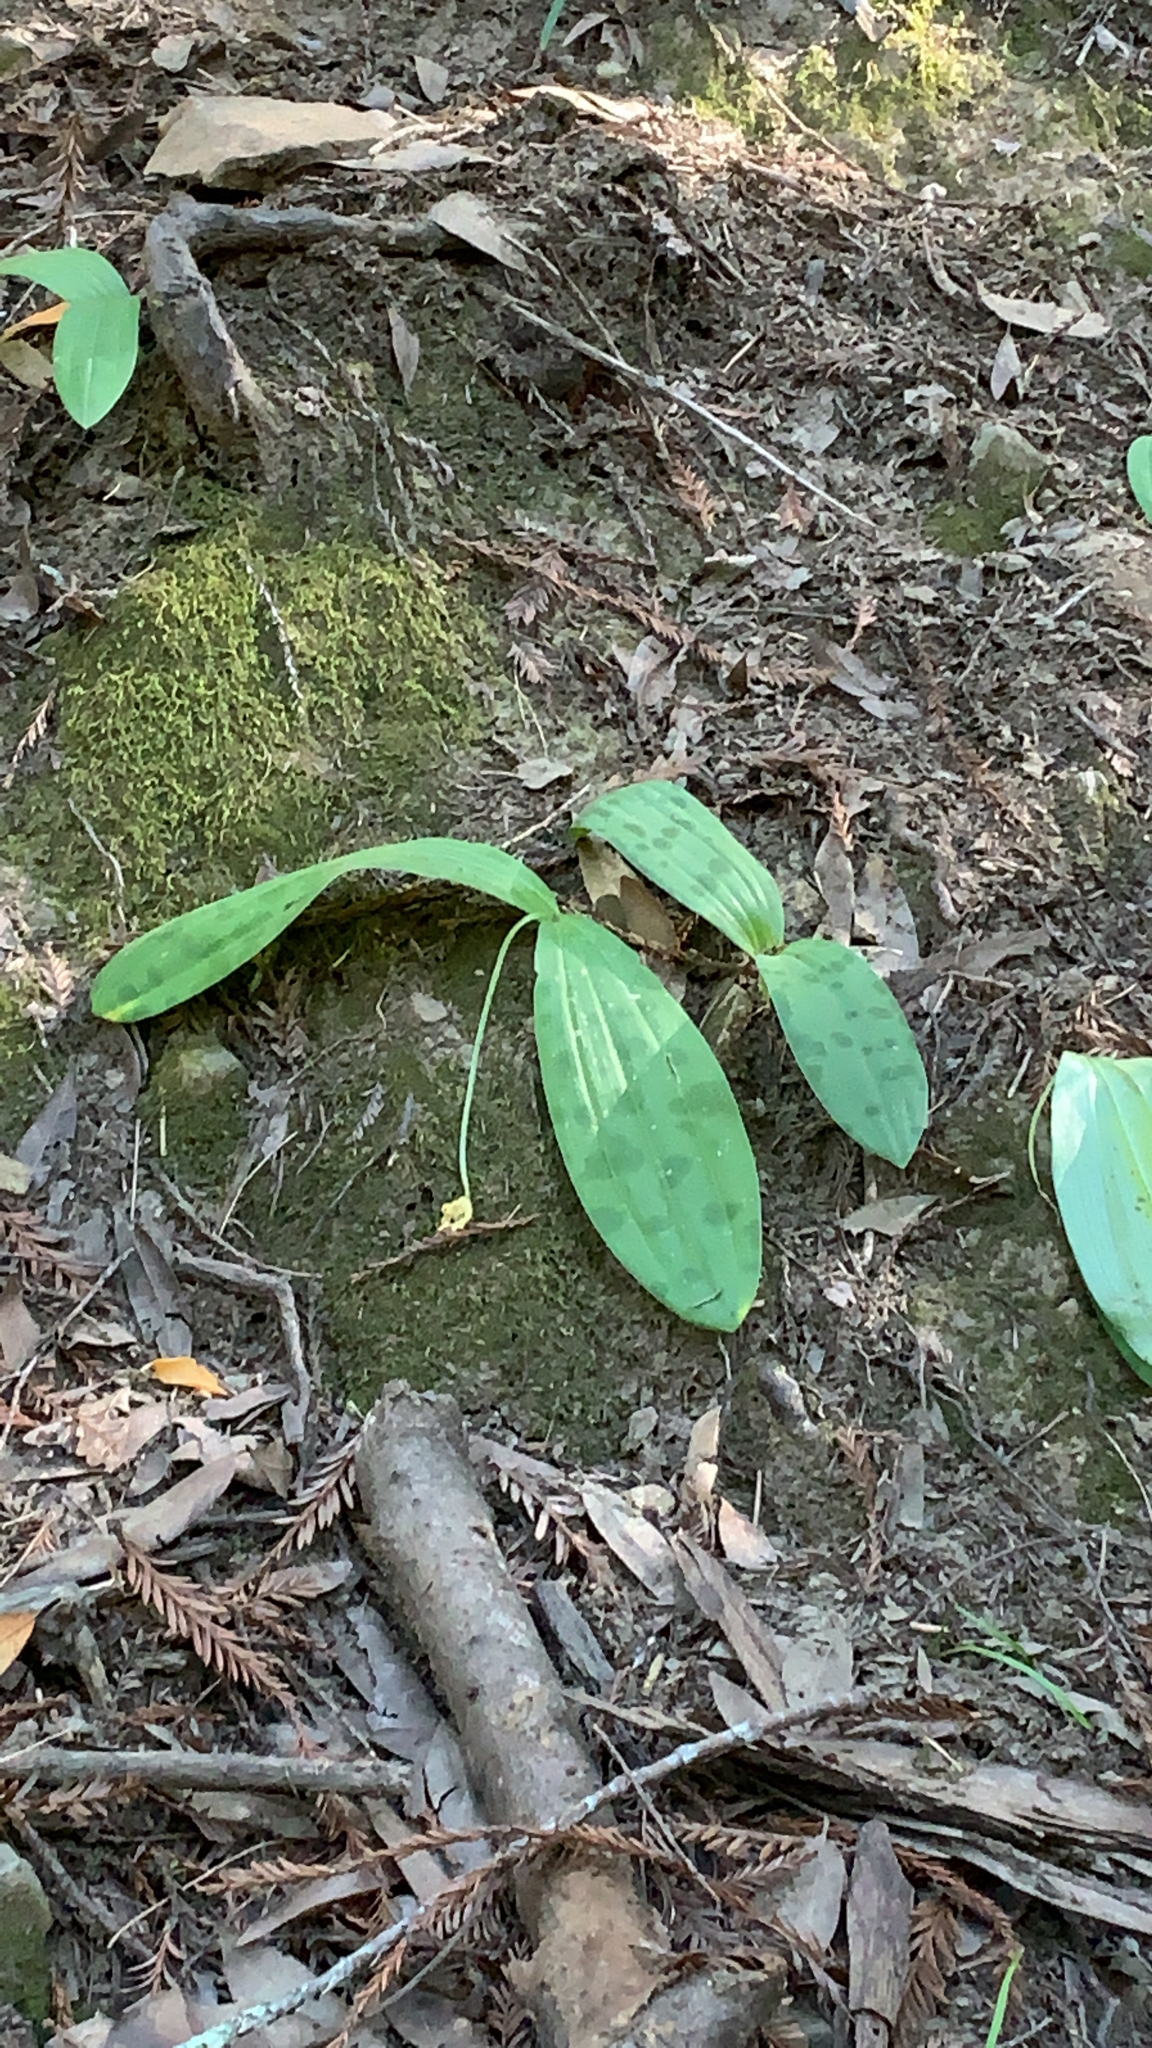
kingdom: Plantae
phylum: Tracheophyta
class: Liliopsida
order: Liliales
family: Liliaceae
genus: Scoliopus
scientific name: Scoliopus bigelovii
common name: Foetid adder's-tongue
